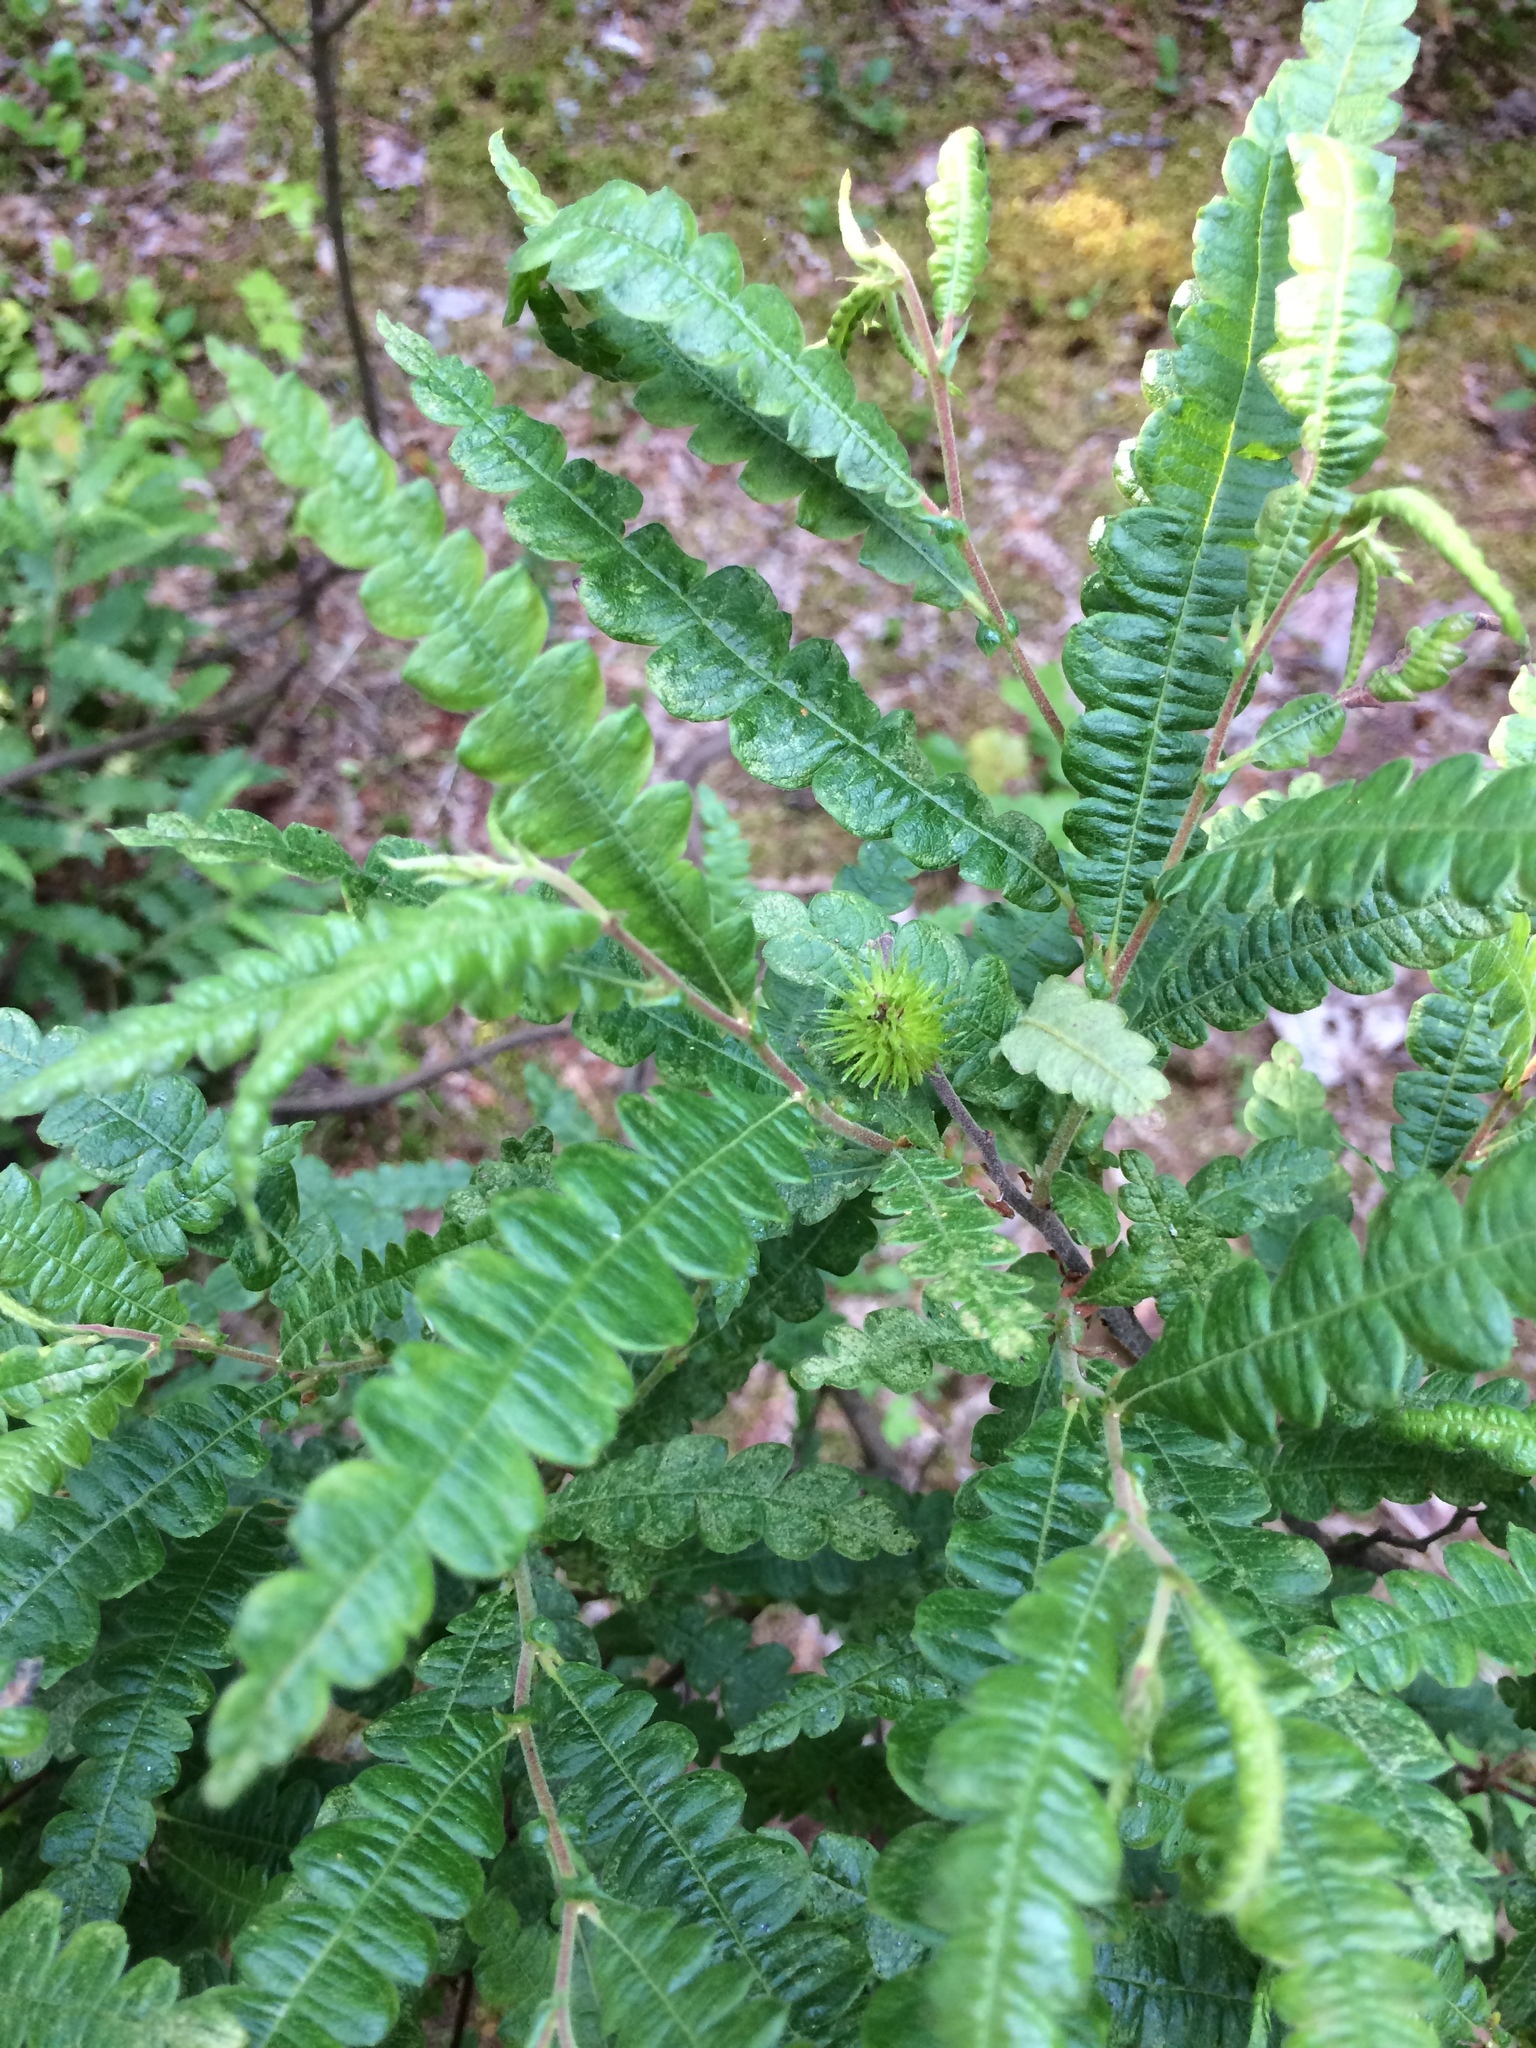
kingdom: Plantae
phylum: Tracheophyta
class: Magnoliopsida
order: Fagales
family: Myricaceae
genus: Comptonia
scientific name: Comptonia peregrina
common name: Sweet-fern
